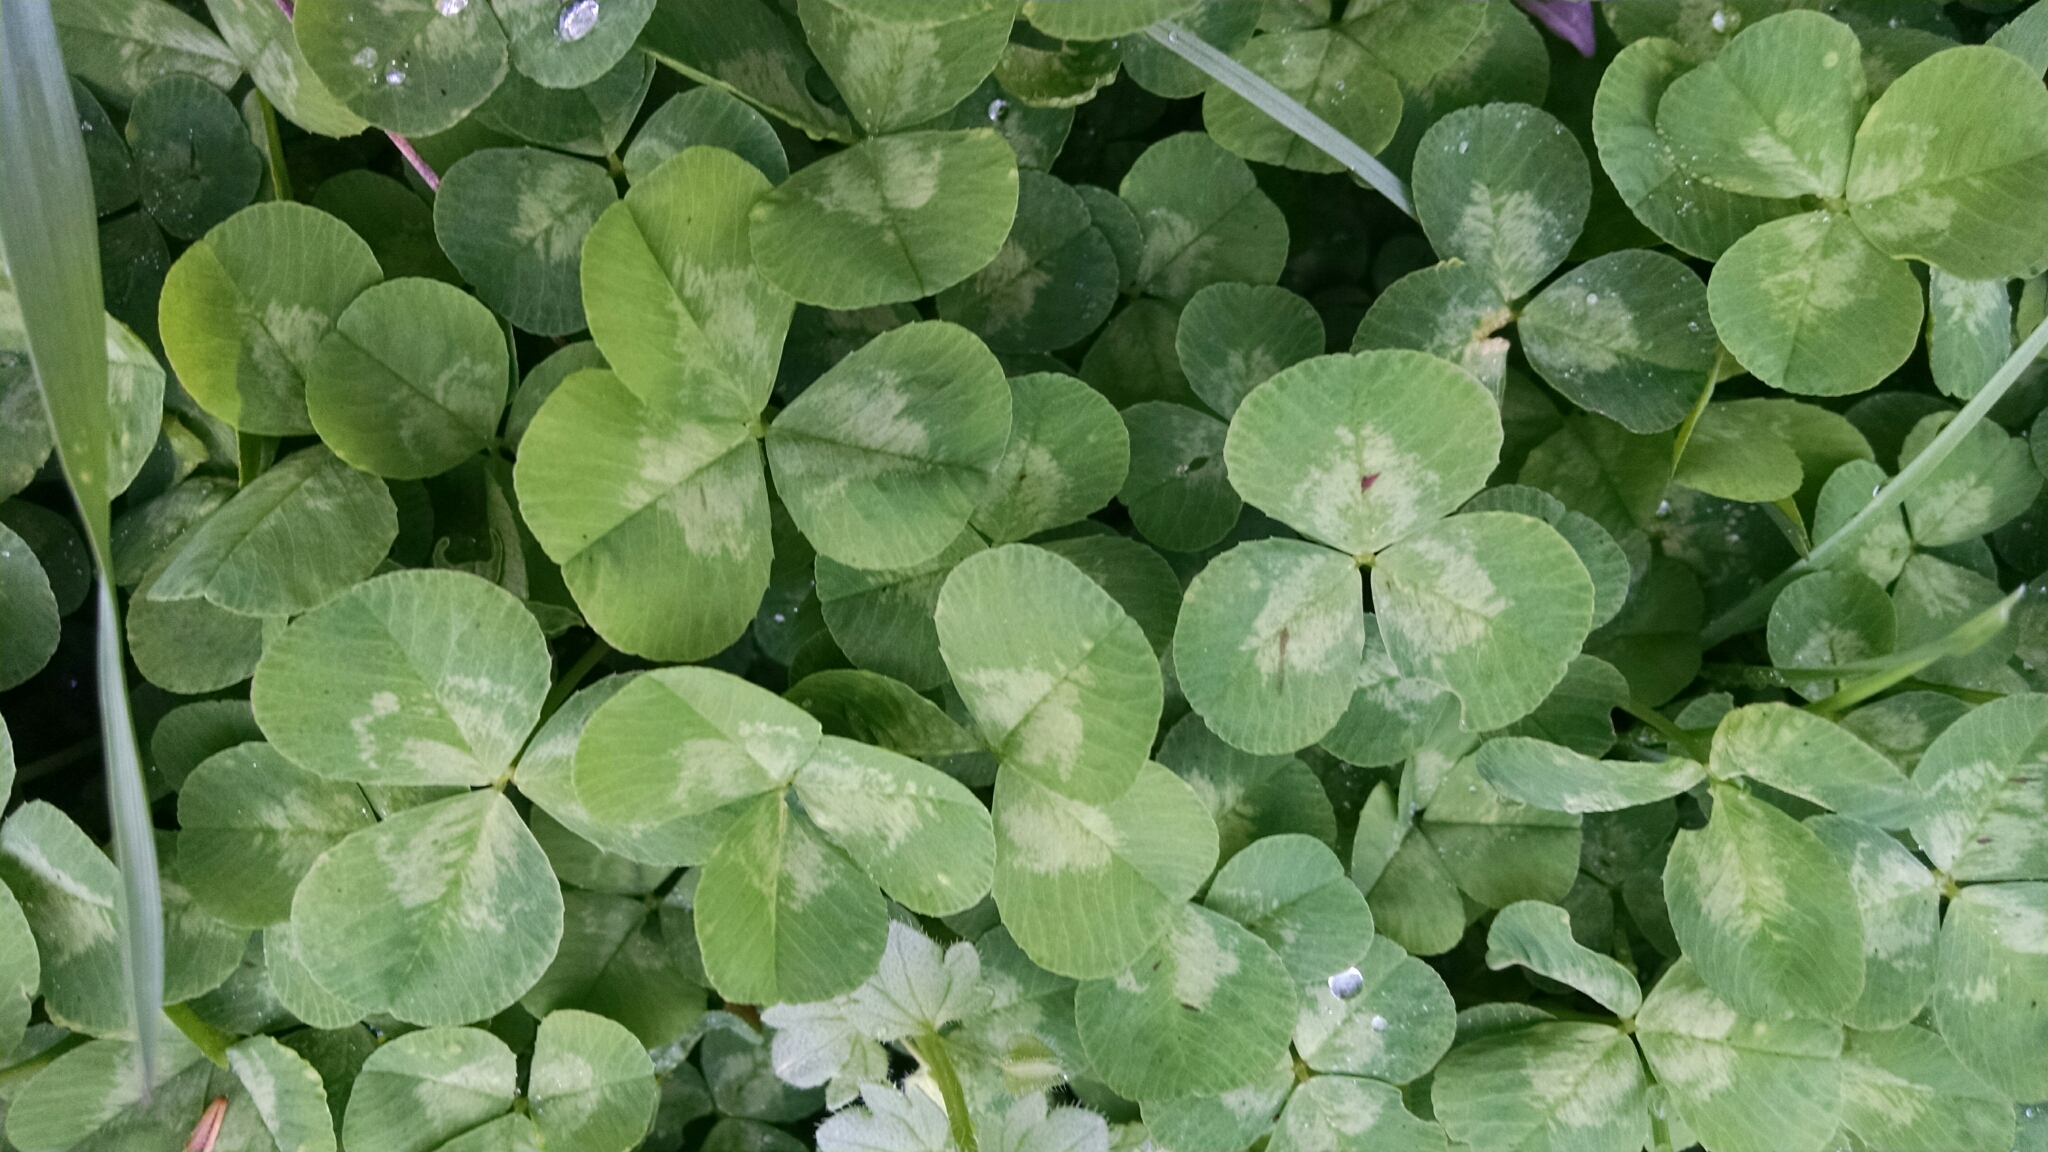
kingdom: Plantae
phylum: Tracheophyta
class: Magnoliopsida
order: Fabales
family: Fabaceae
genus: Trifolium
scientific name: Trifolium repens
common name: White clover
